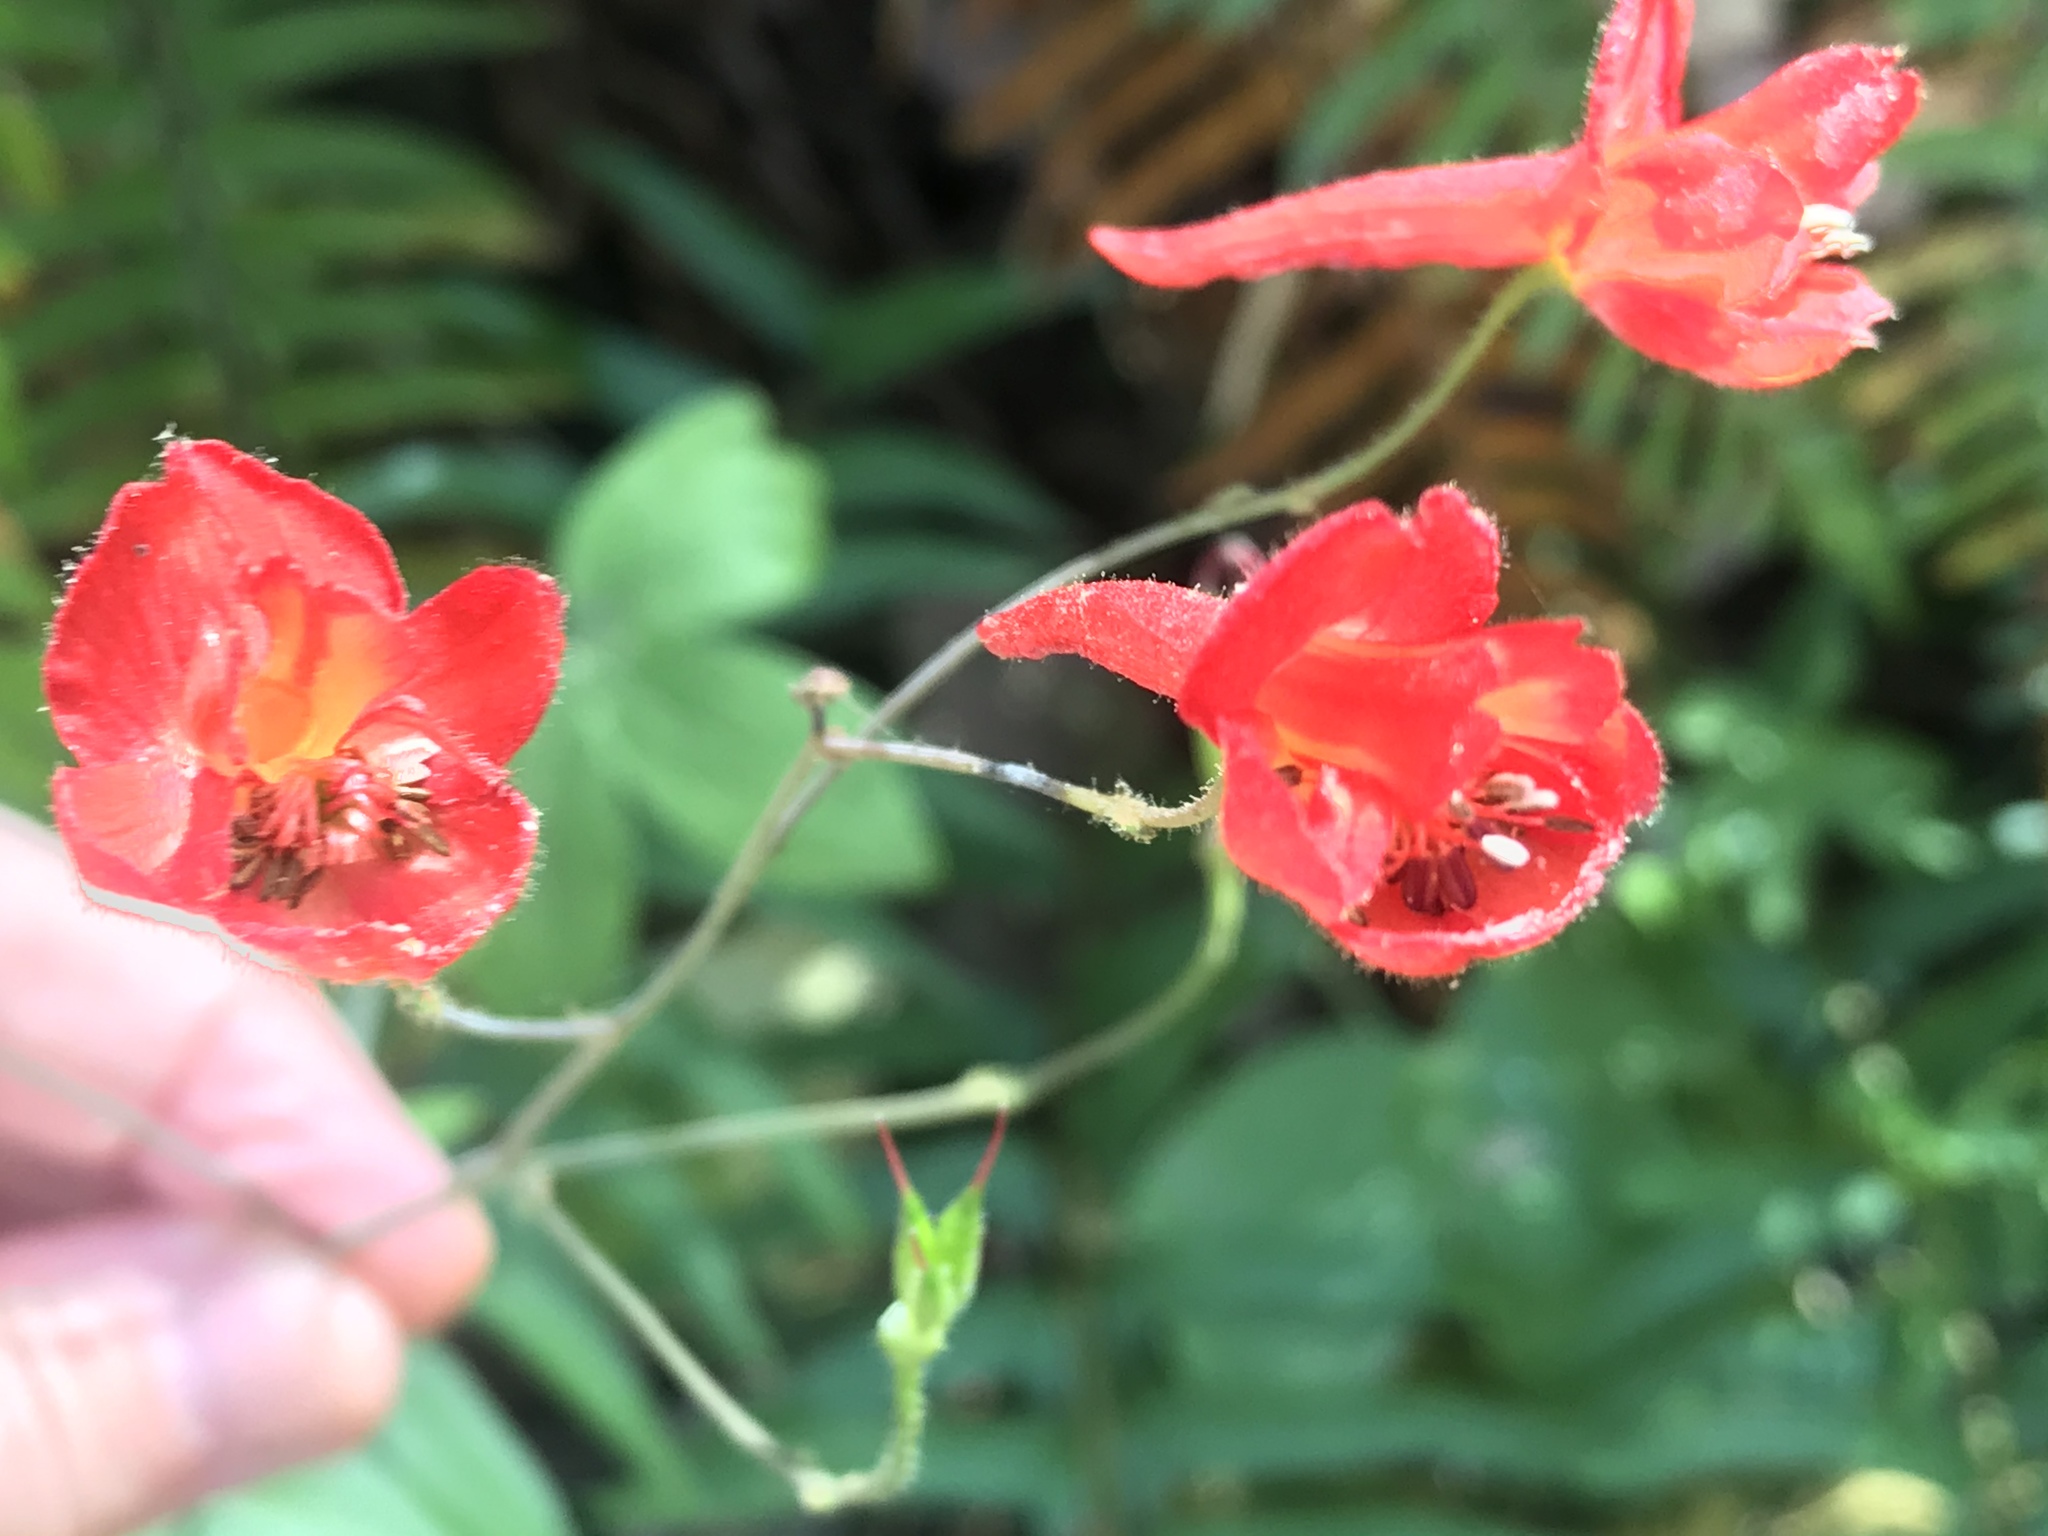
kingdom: Plantae
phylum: Tracheophyta
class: Magnoliopsida
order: Ranunculales
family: Ranunculaceae
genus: Delphinium
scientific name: Delphinium nudicaule
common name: Red larkspur
